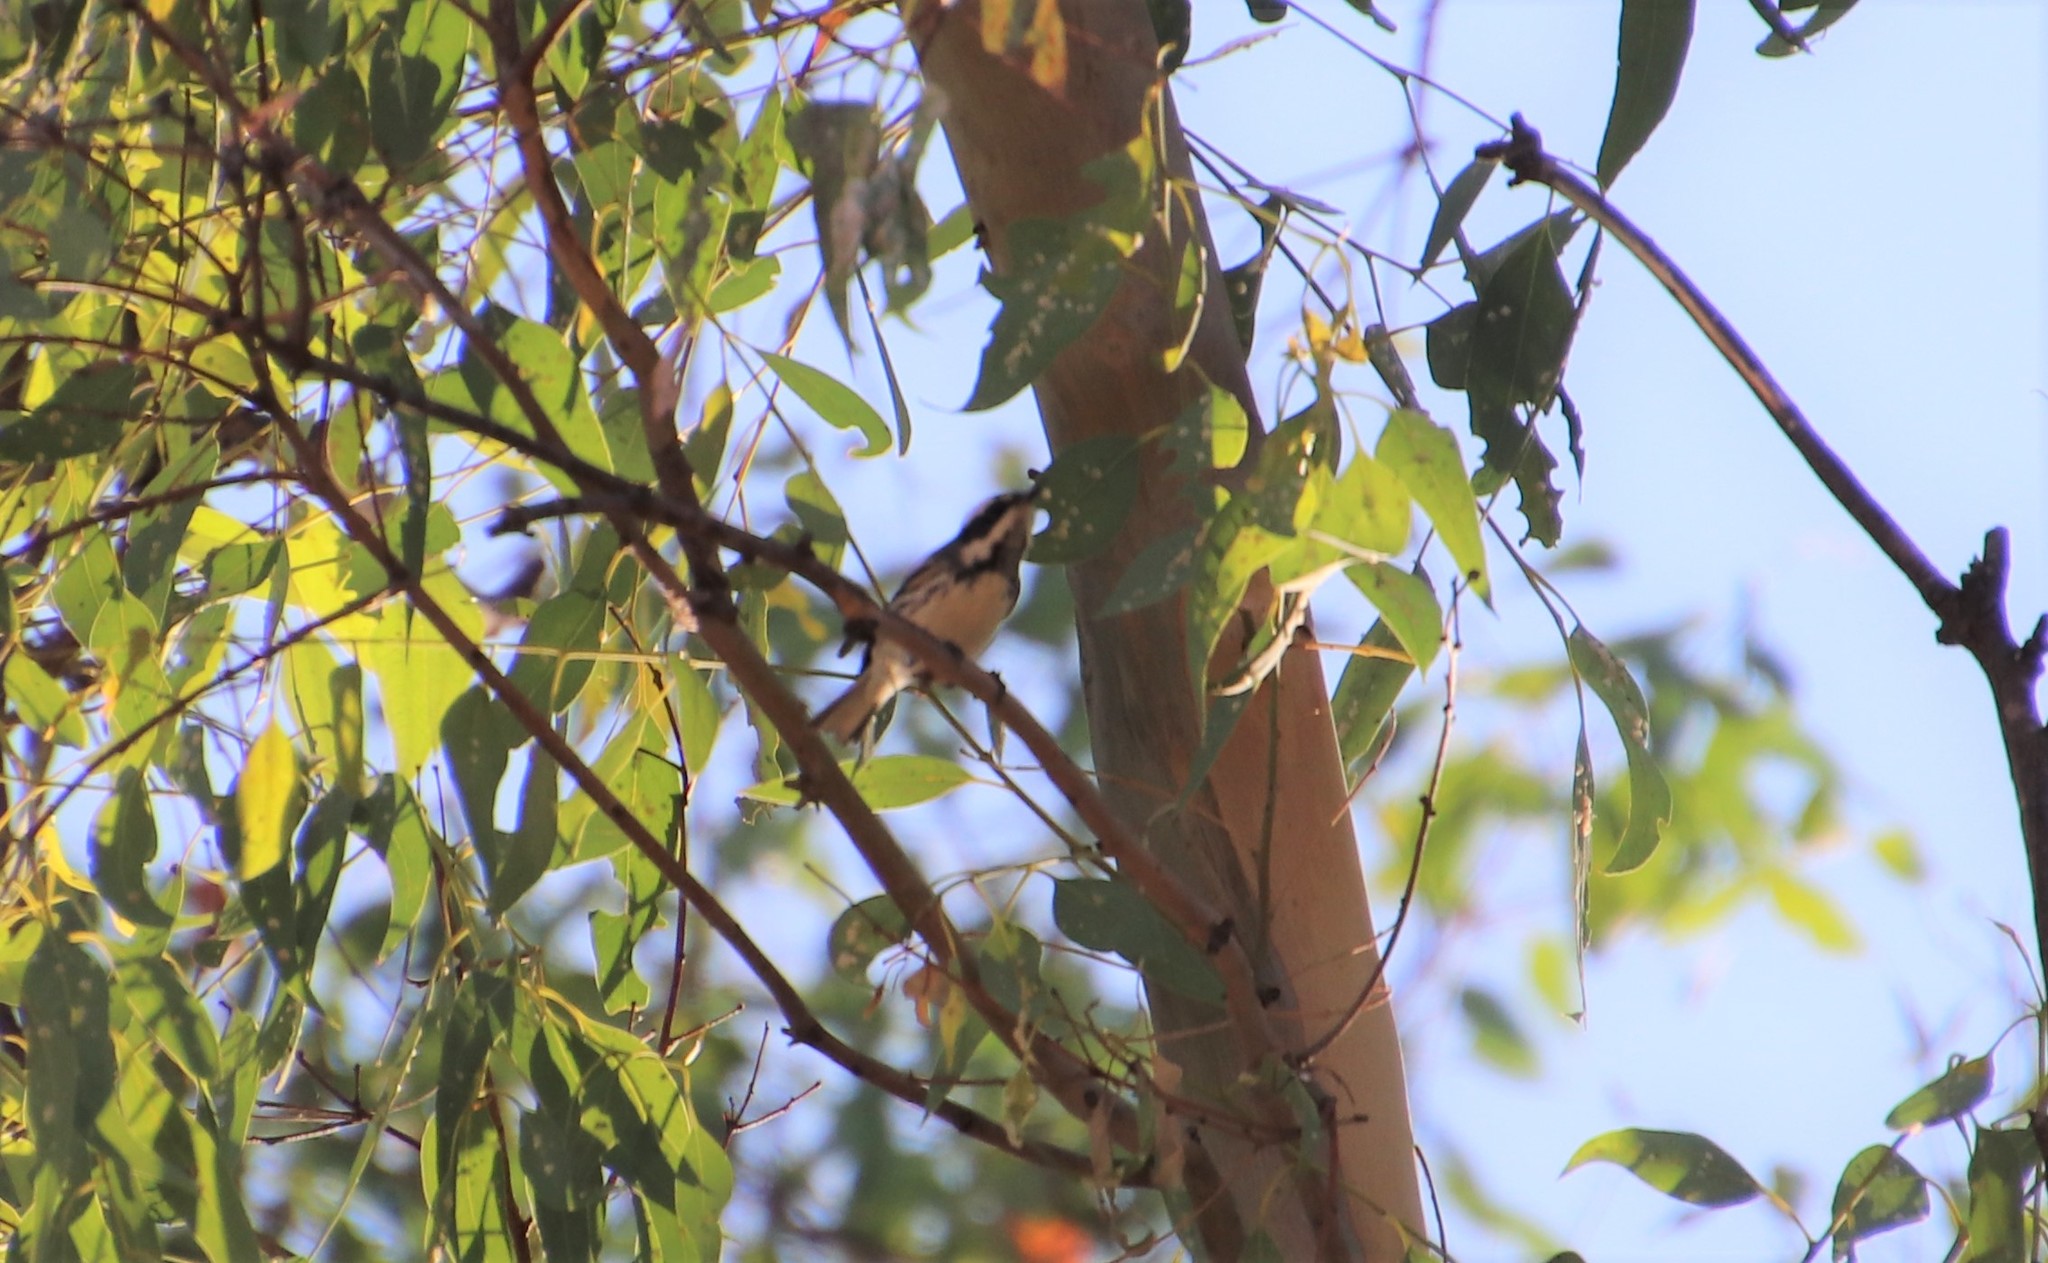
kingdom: Animalia
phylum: Chordata
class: Aves
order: Passeriformes
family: Parulidae
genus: Setophaga
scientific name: Setophaga nigrescens
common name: Black-throated gray warbler
